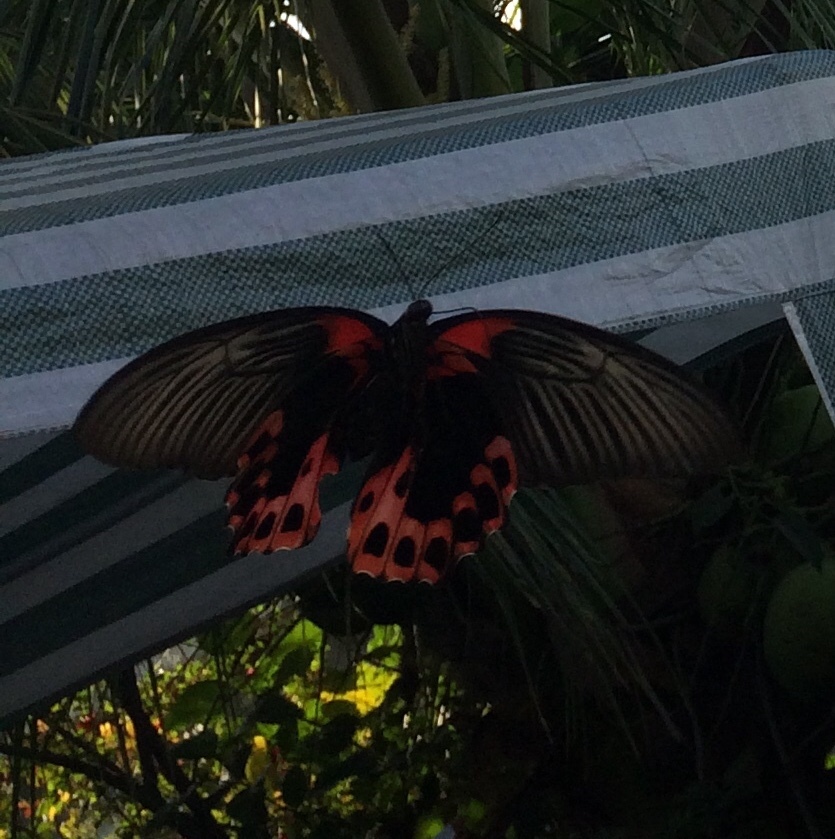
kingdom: Animalia
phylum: Arthropoda
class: Insecta
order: Lepidoptera
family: Papilionidae
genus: Papilio
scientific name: Papilio deiphobus
